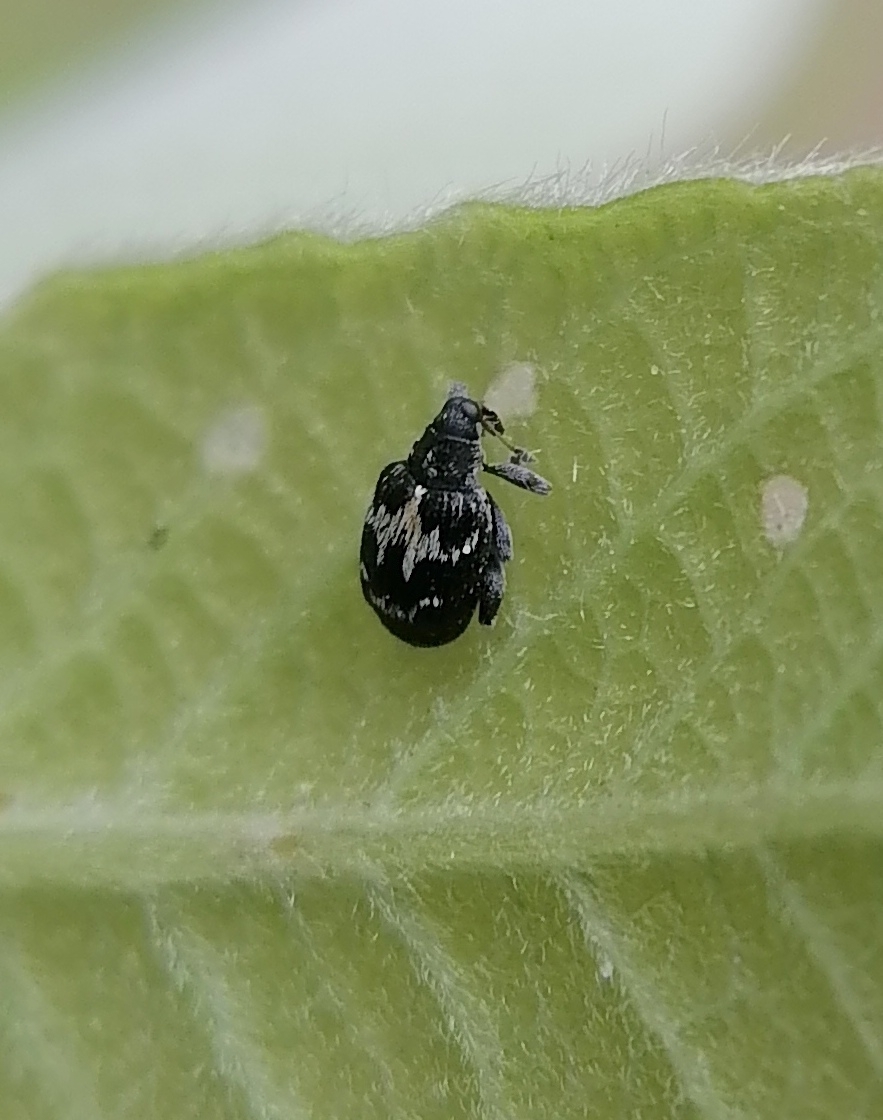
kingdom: Animalia
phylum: Arthropoda
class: Insecta
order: Coleoptera
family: Curculionidae
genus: Tachyerges
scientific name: Tachyerges salicis
